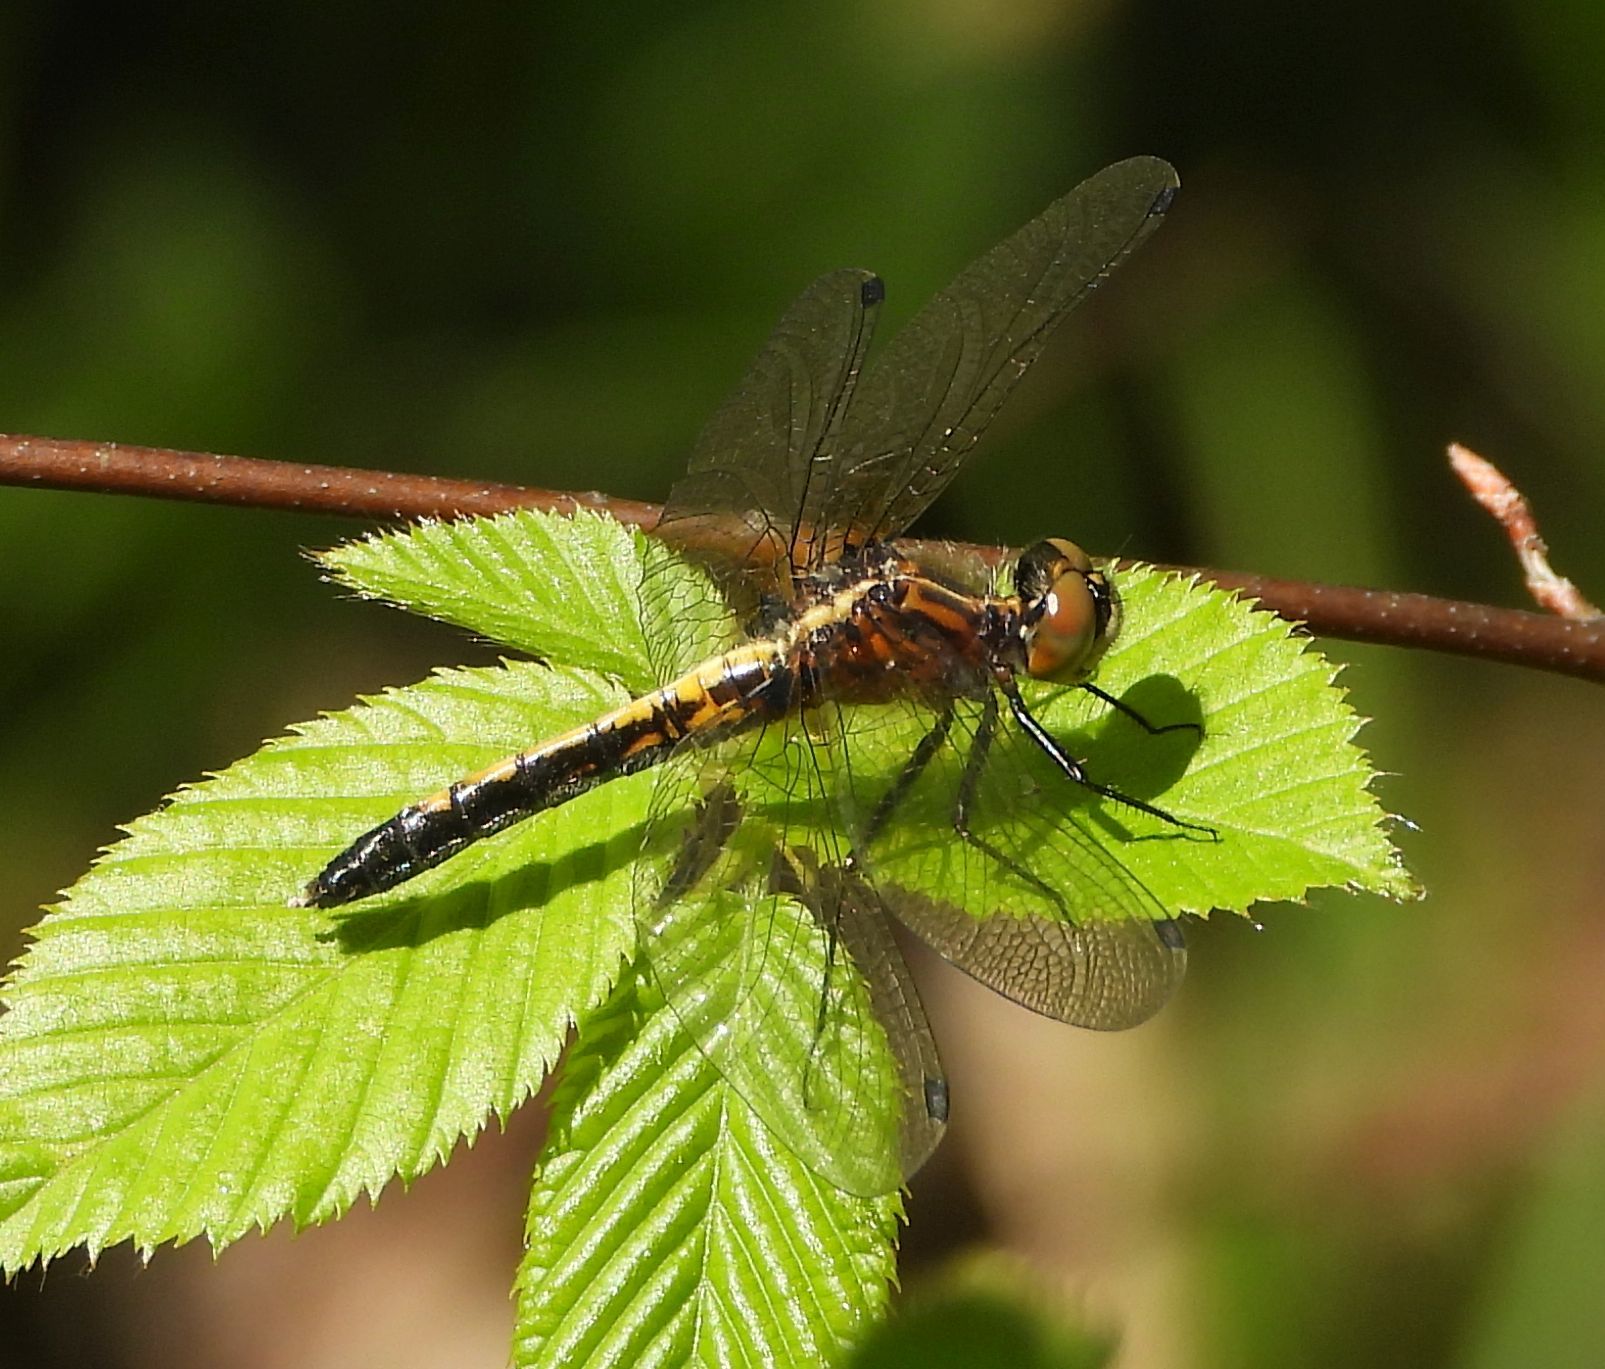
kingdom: Animalia
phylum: Arthropoda
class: Insecta
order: Odonata
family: Libellulidae
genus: Leucorrhinia
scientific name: Leucorrhinia intacta
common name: Dot-tailed whiteface
